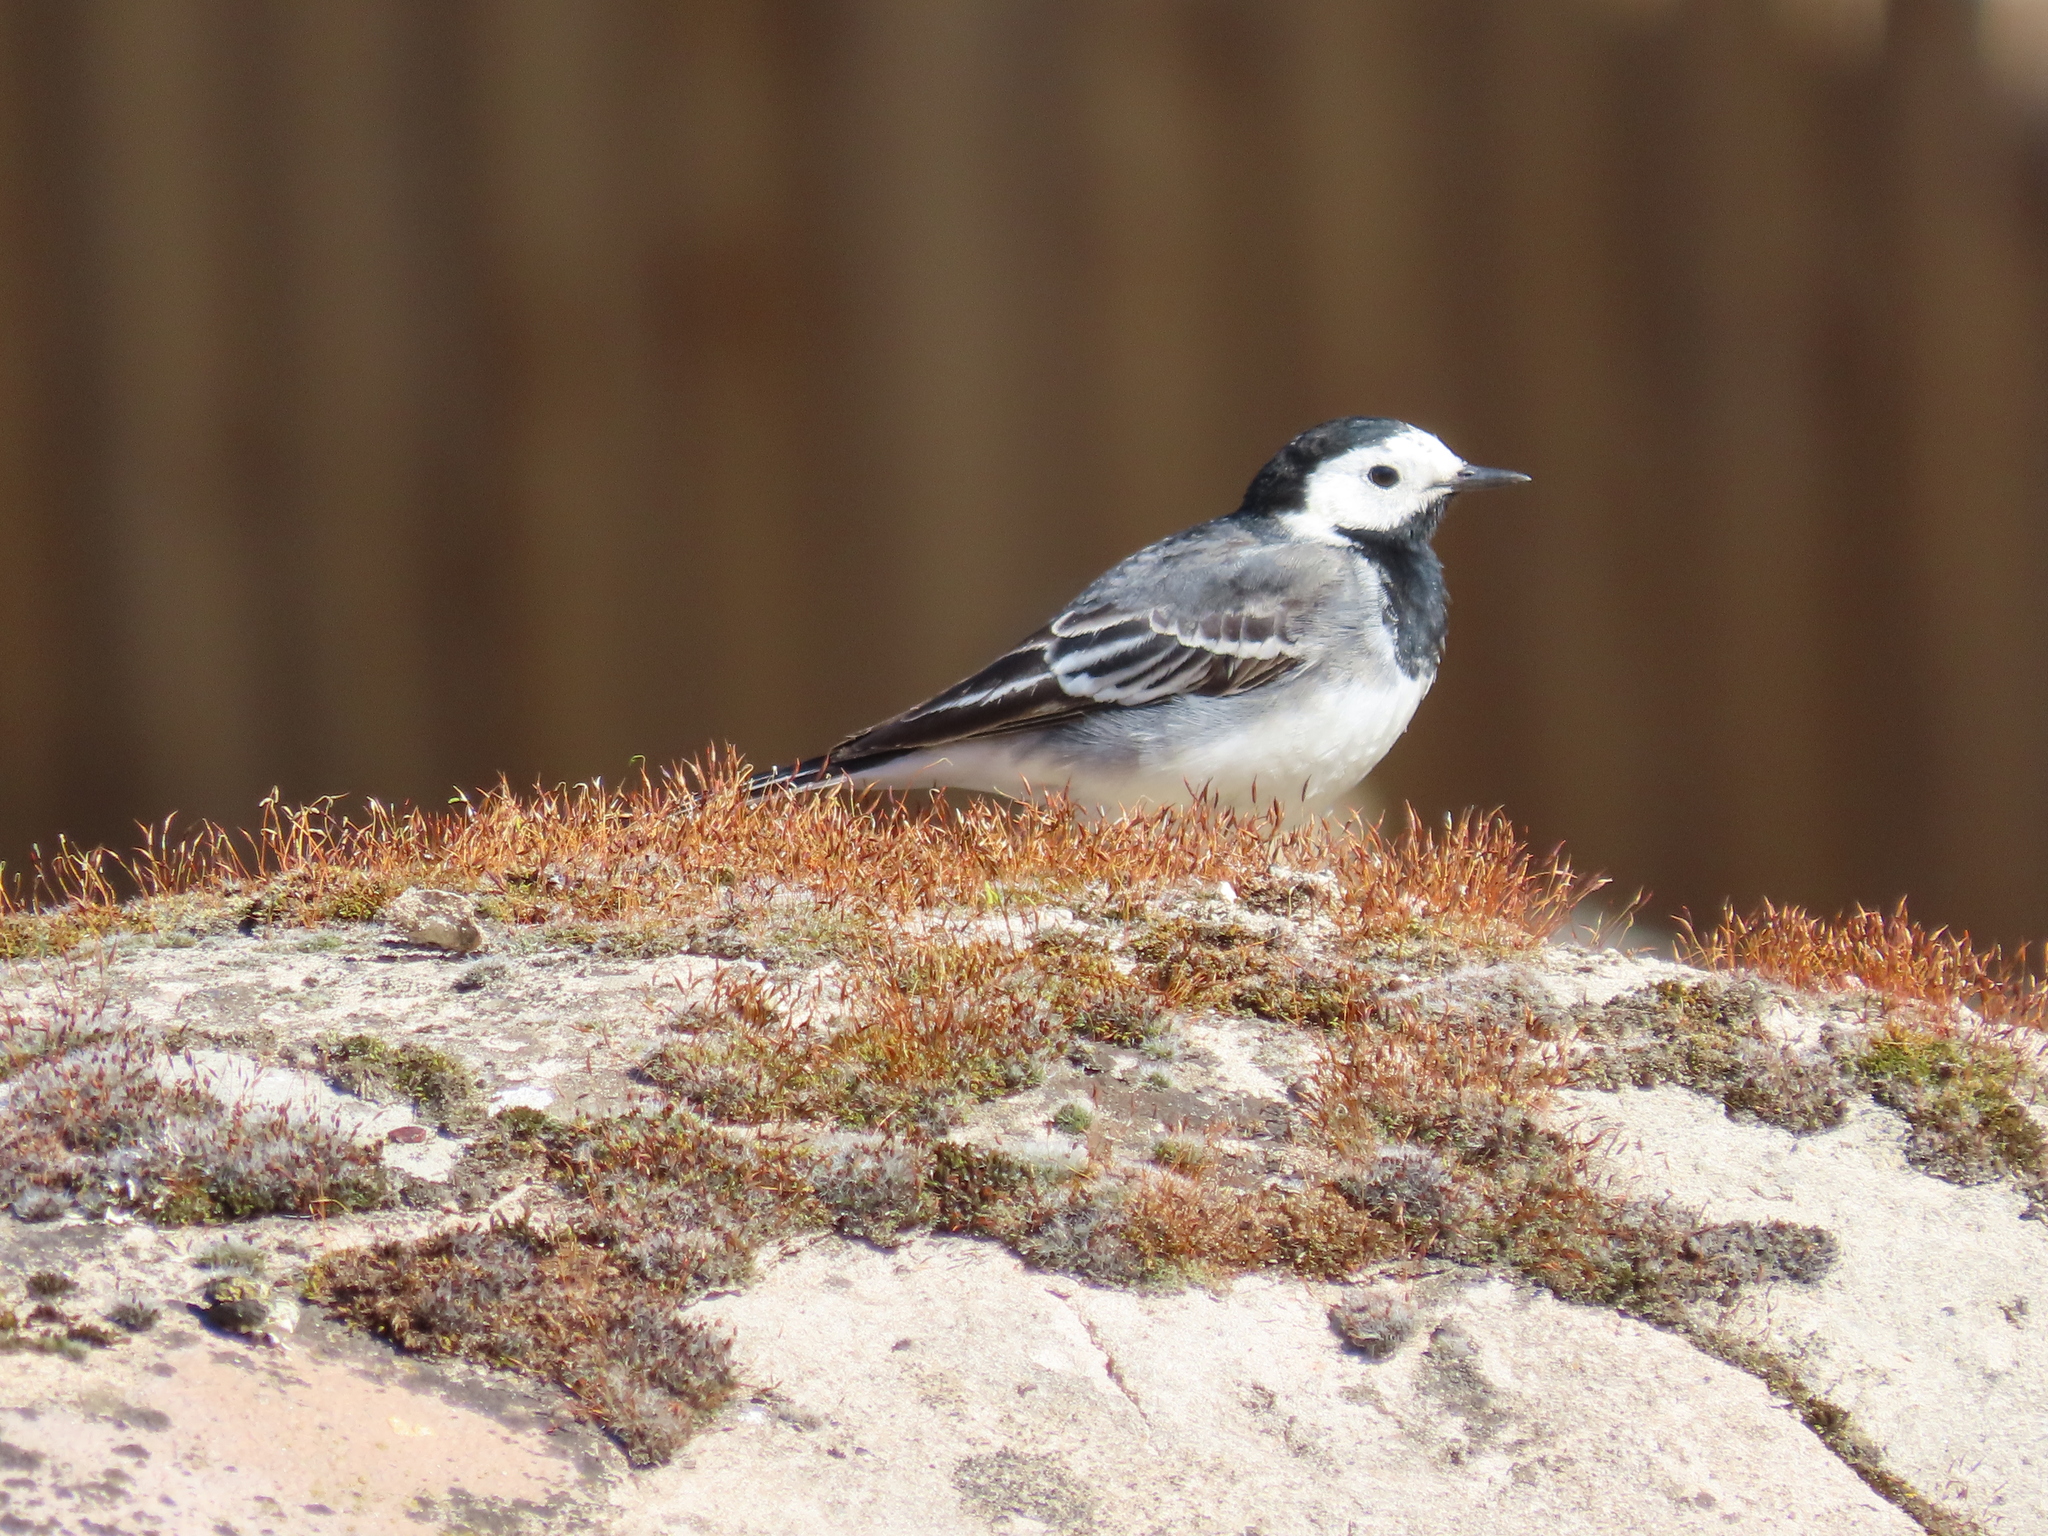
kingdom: Animalia
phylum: Chordata
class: Aves
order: Passeriformes
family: Motacillidae
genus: Motacilla
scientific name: Motacilla alba
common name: White wagtail
